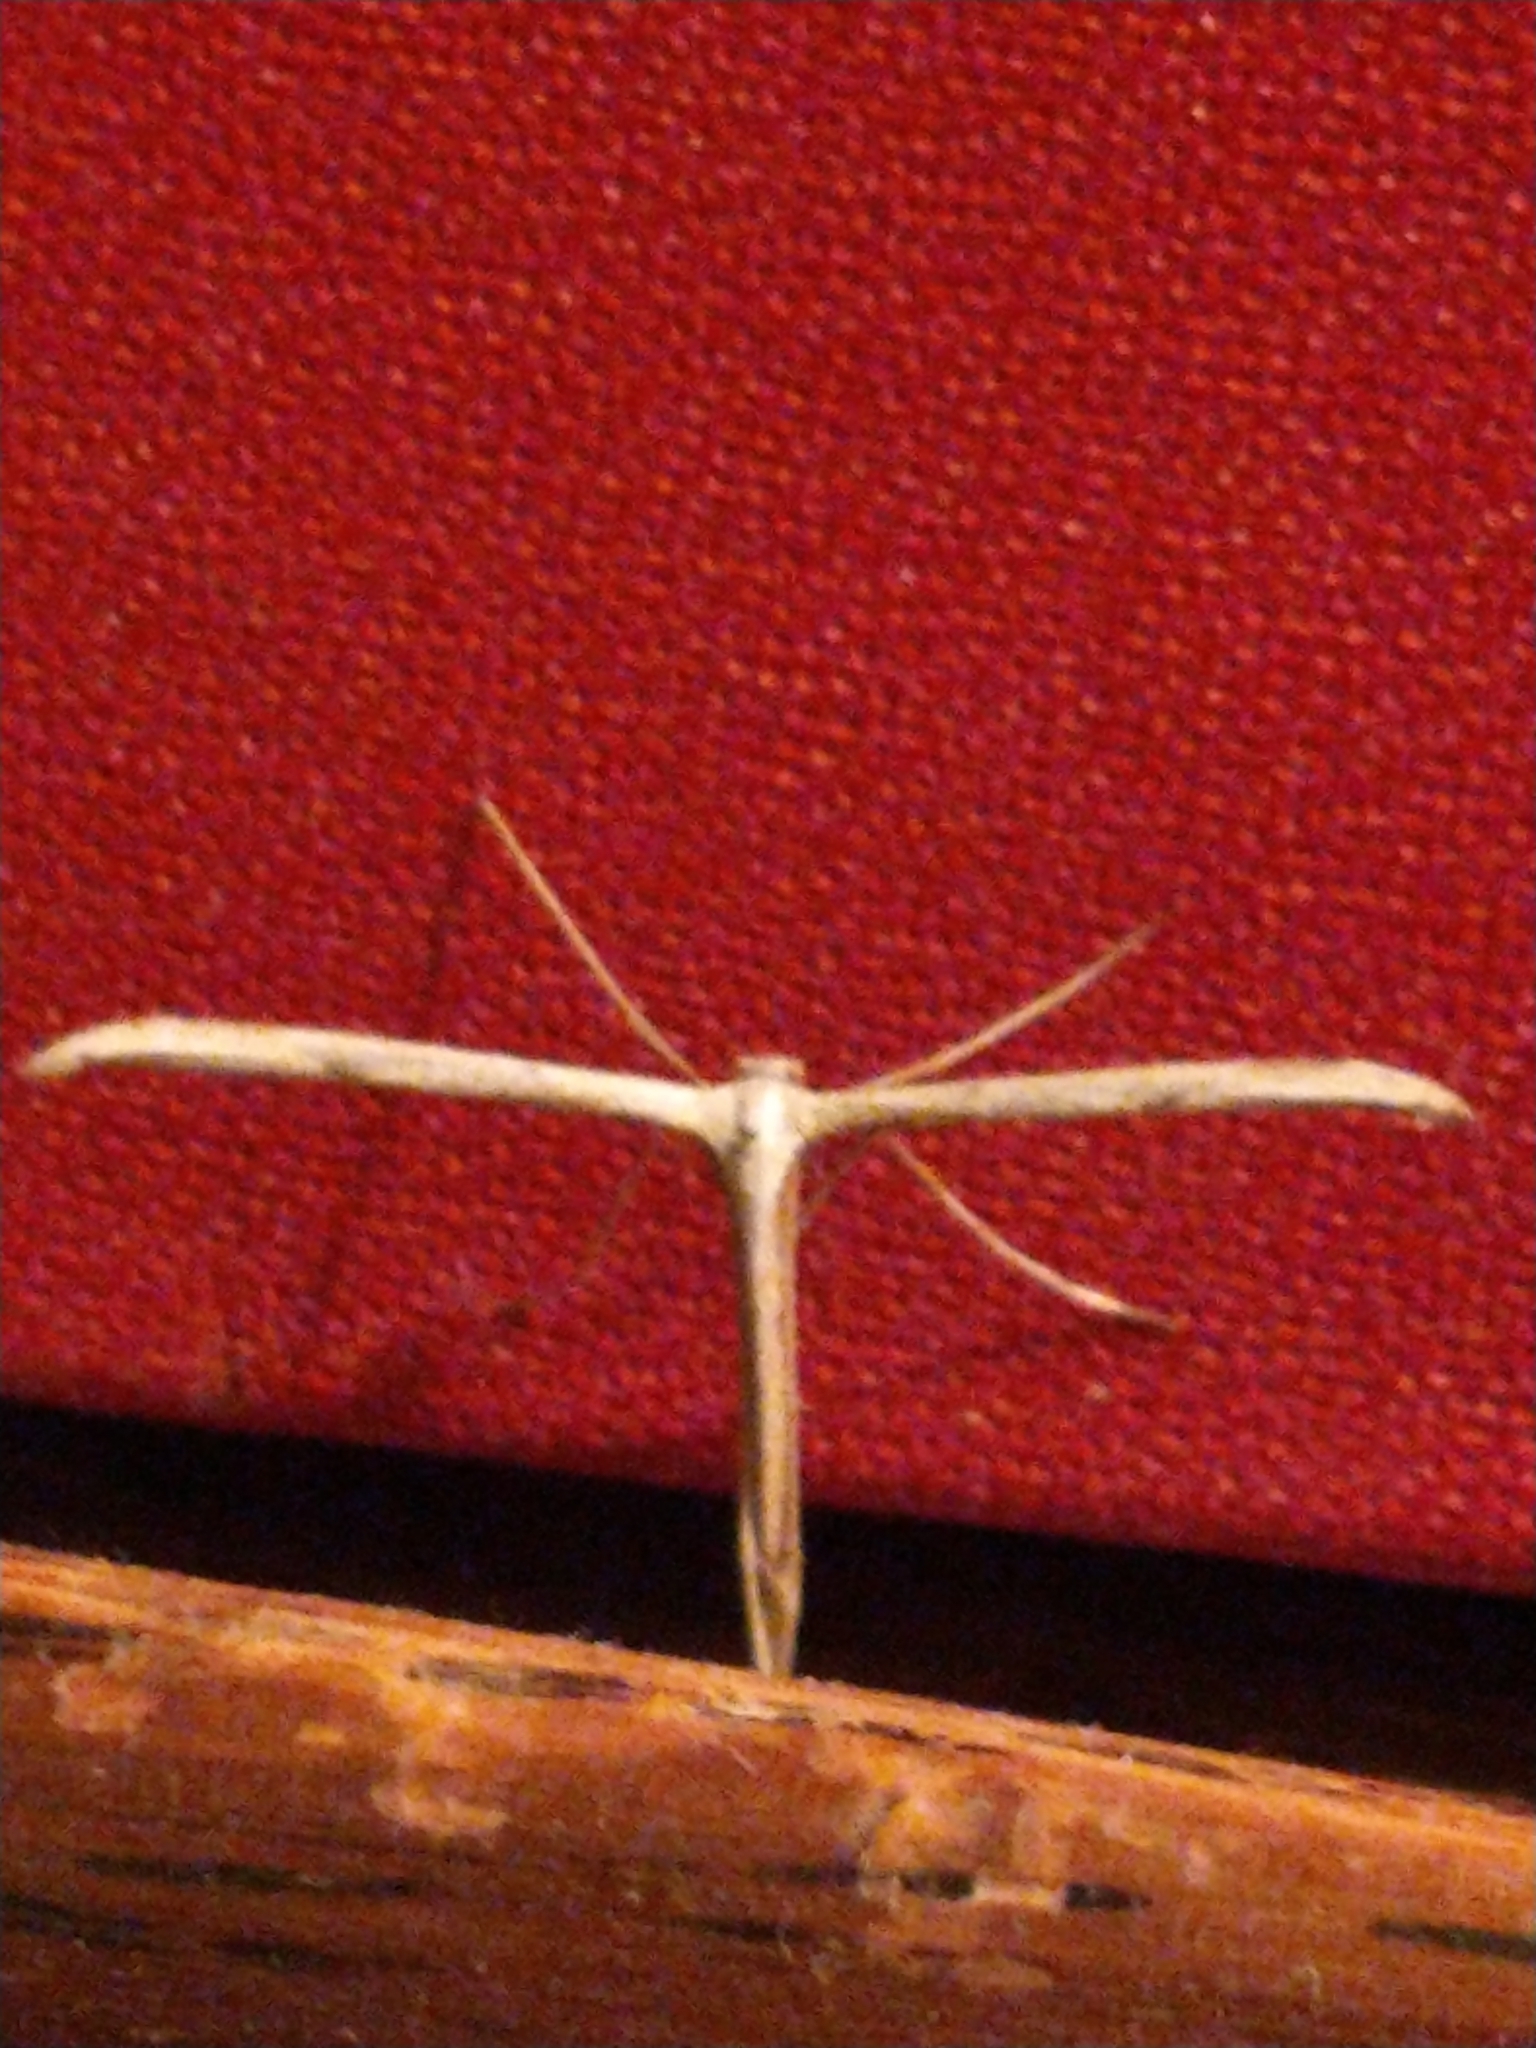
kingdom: Animalia
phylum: Arthropoda
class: Insecta
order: Lepidoptera
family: Pterophoridae
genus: Emmelina
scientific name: Emmelina monodactyla
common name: Common plume
